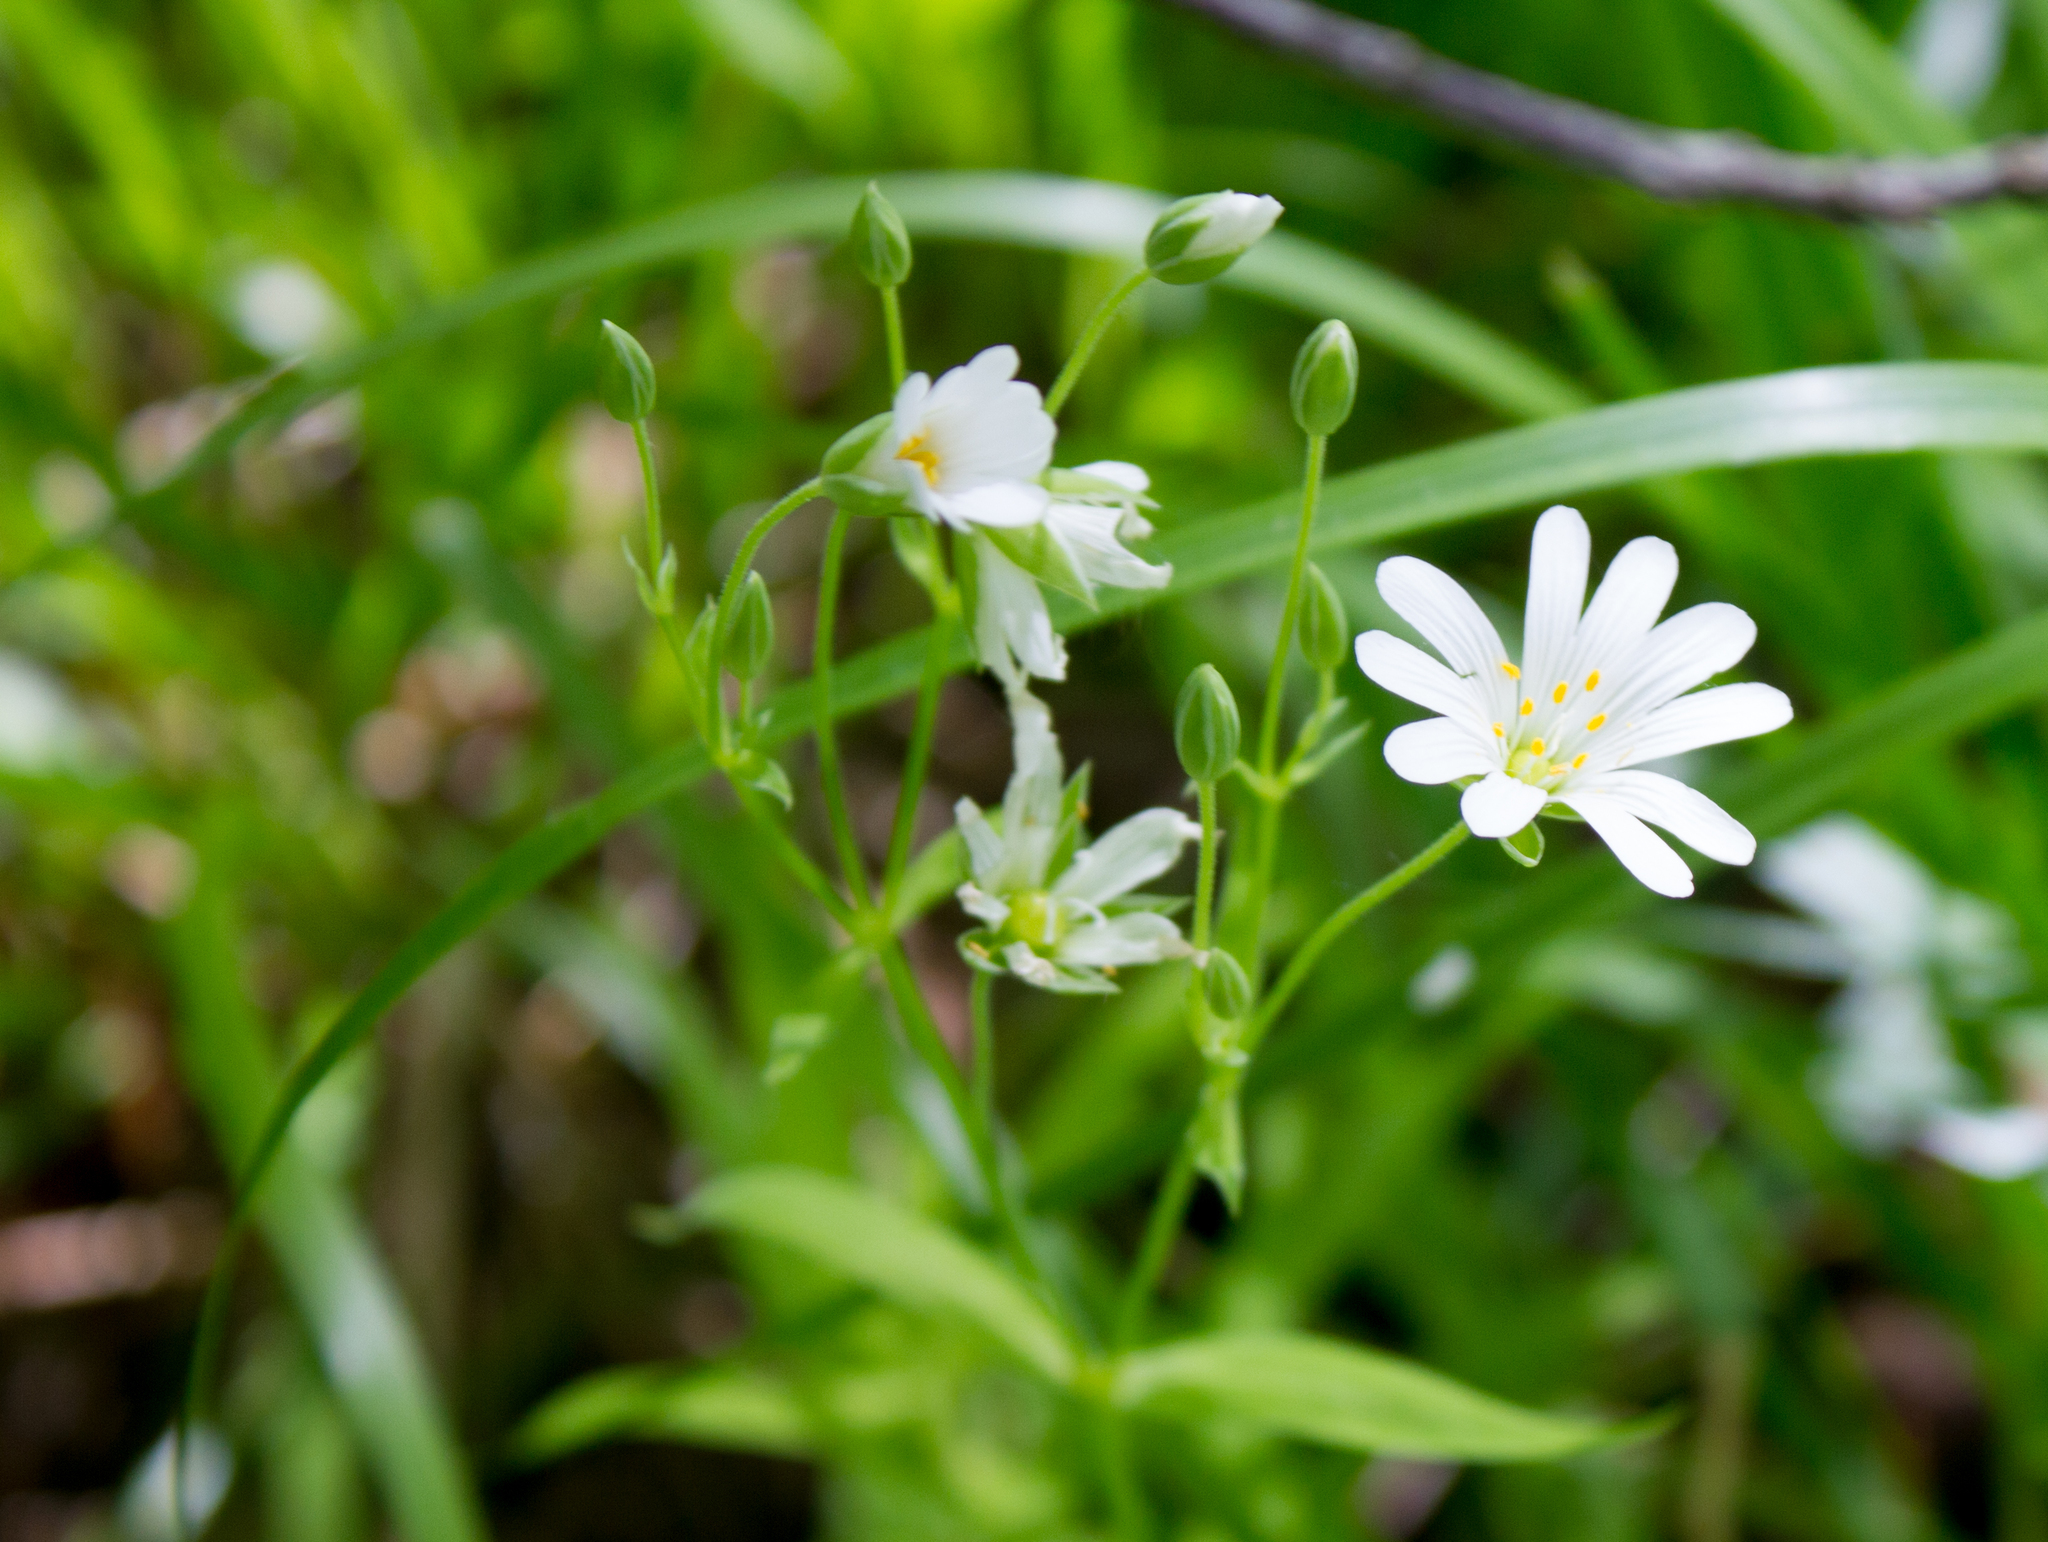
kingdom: Plantae
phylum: Tracheophyta
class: Magnoliopsida
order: Caryophyllales
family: Caryophyllaceae
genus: Rabelera
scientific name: Rabelera holostea
